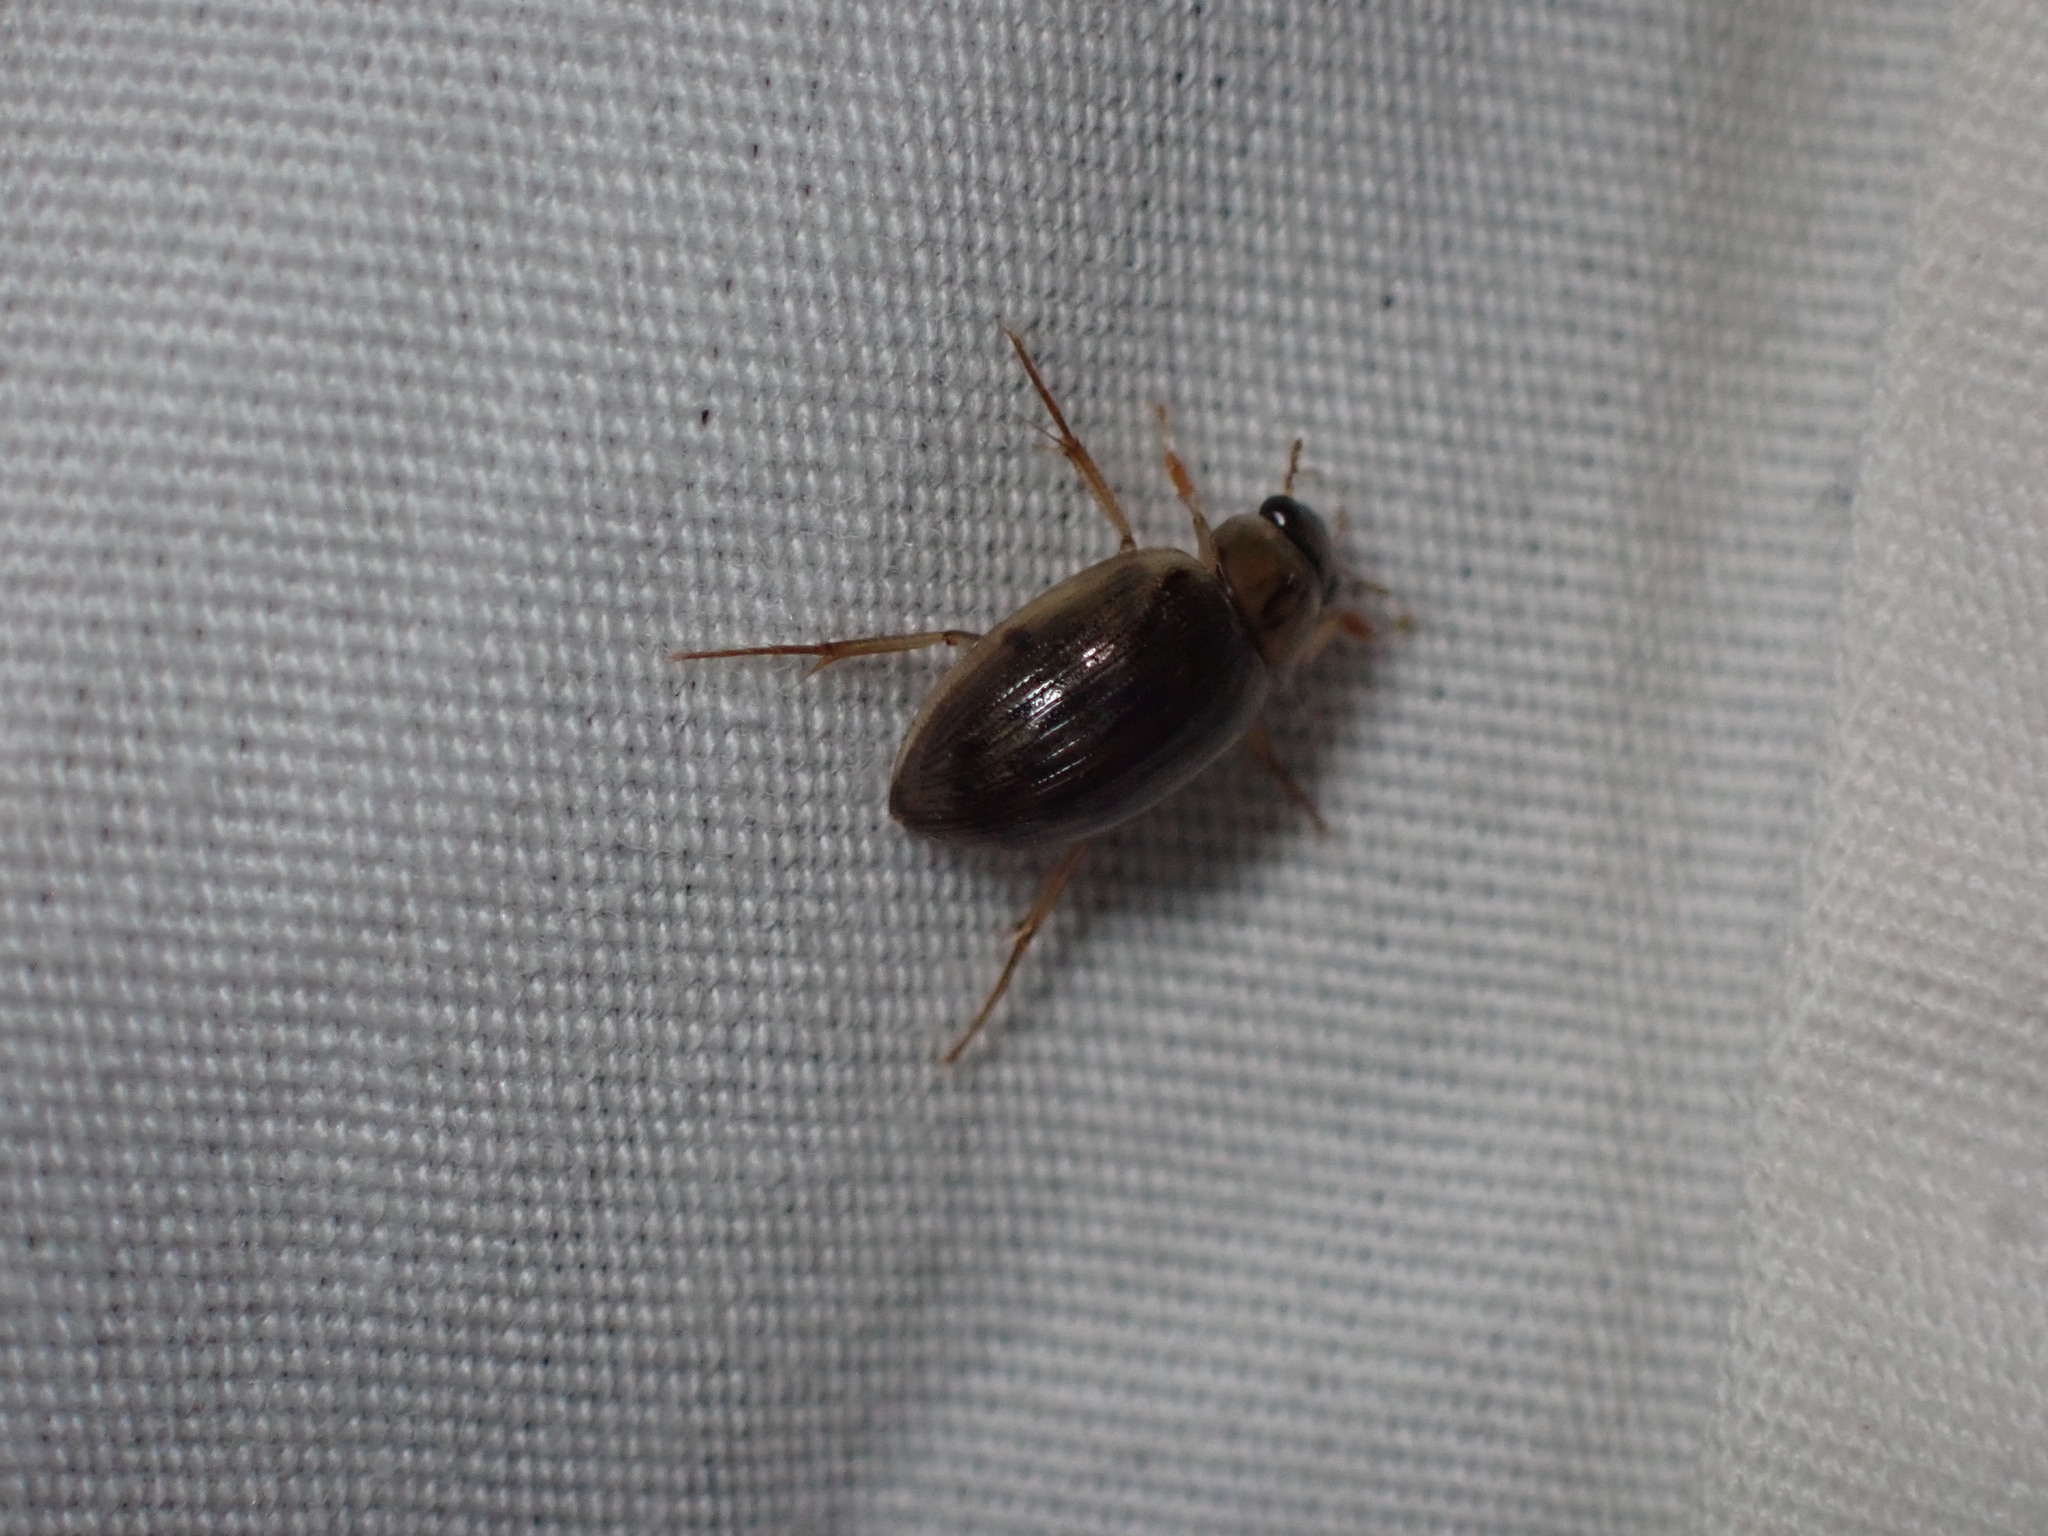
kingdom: Animalia
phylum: Arthropoda
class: Insecta
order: Coleoptera
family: Hydrophilidae
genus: Berosus
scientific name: Berosus
